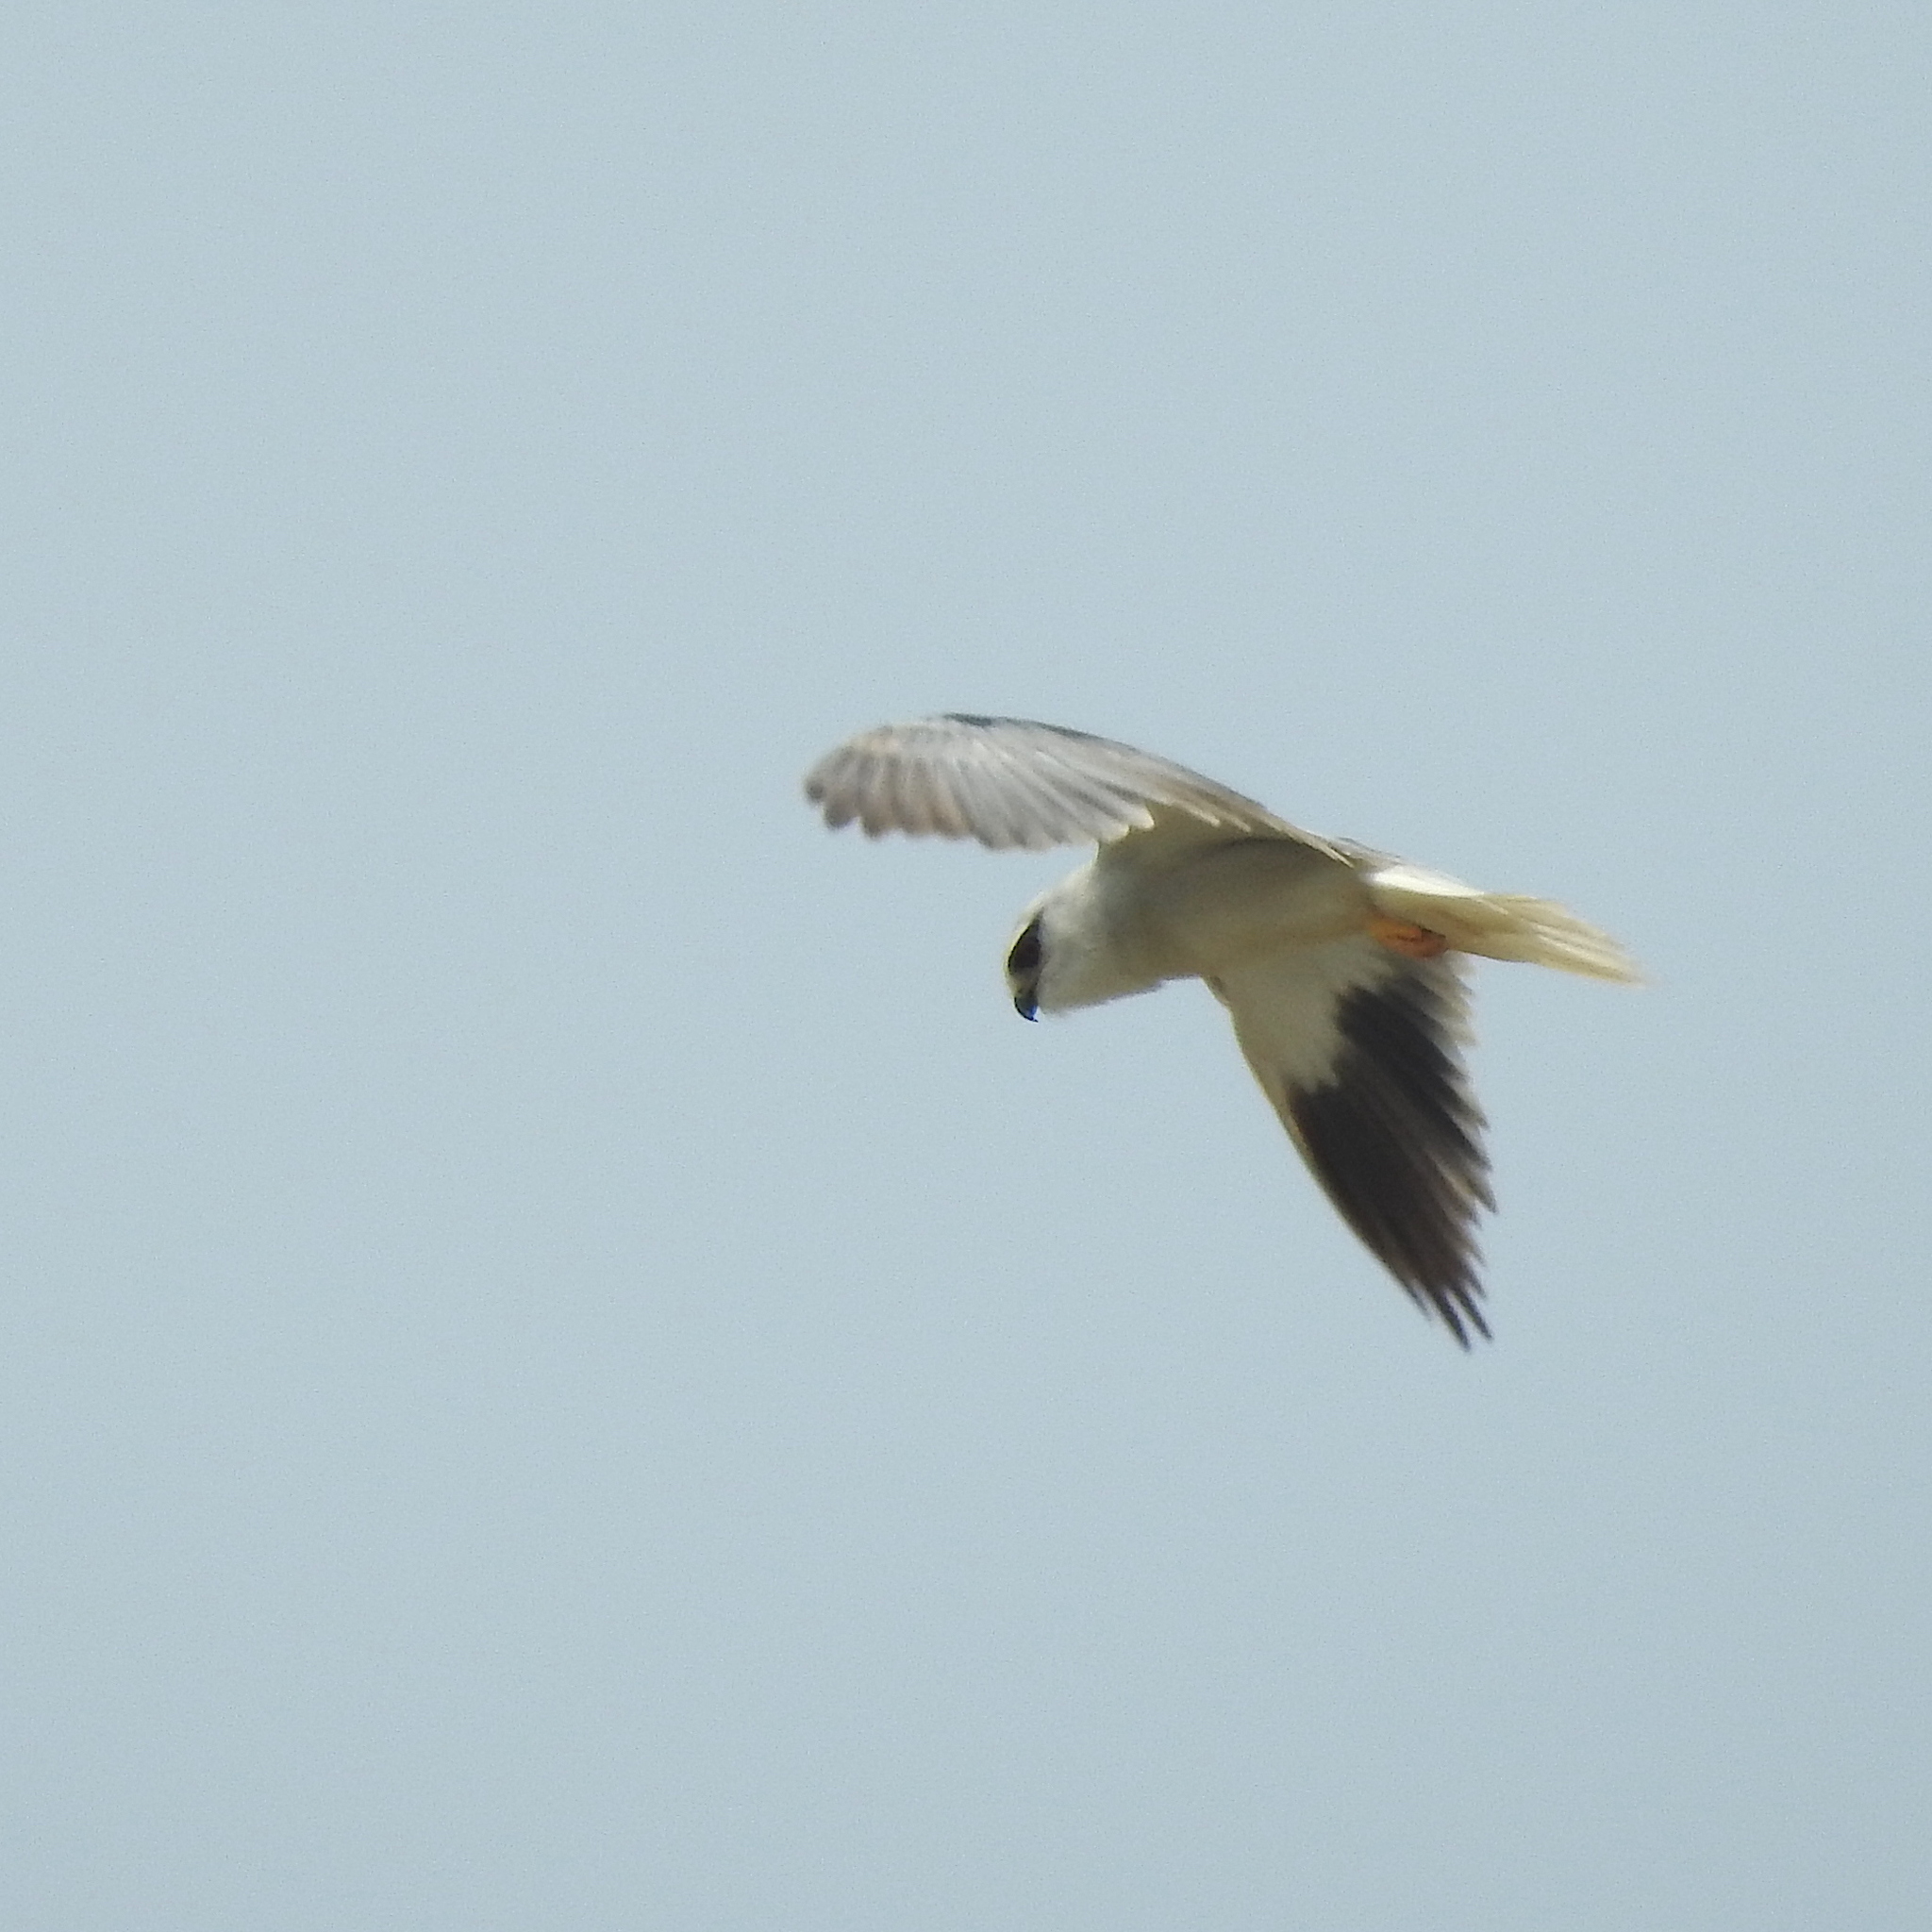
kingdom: Animalia
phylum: Chordata
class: Aves
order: Accipitriformes
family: Accipitridae
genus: Elanus
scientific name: Elanus caeruleus
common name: Black-winged kite
